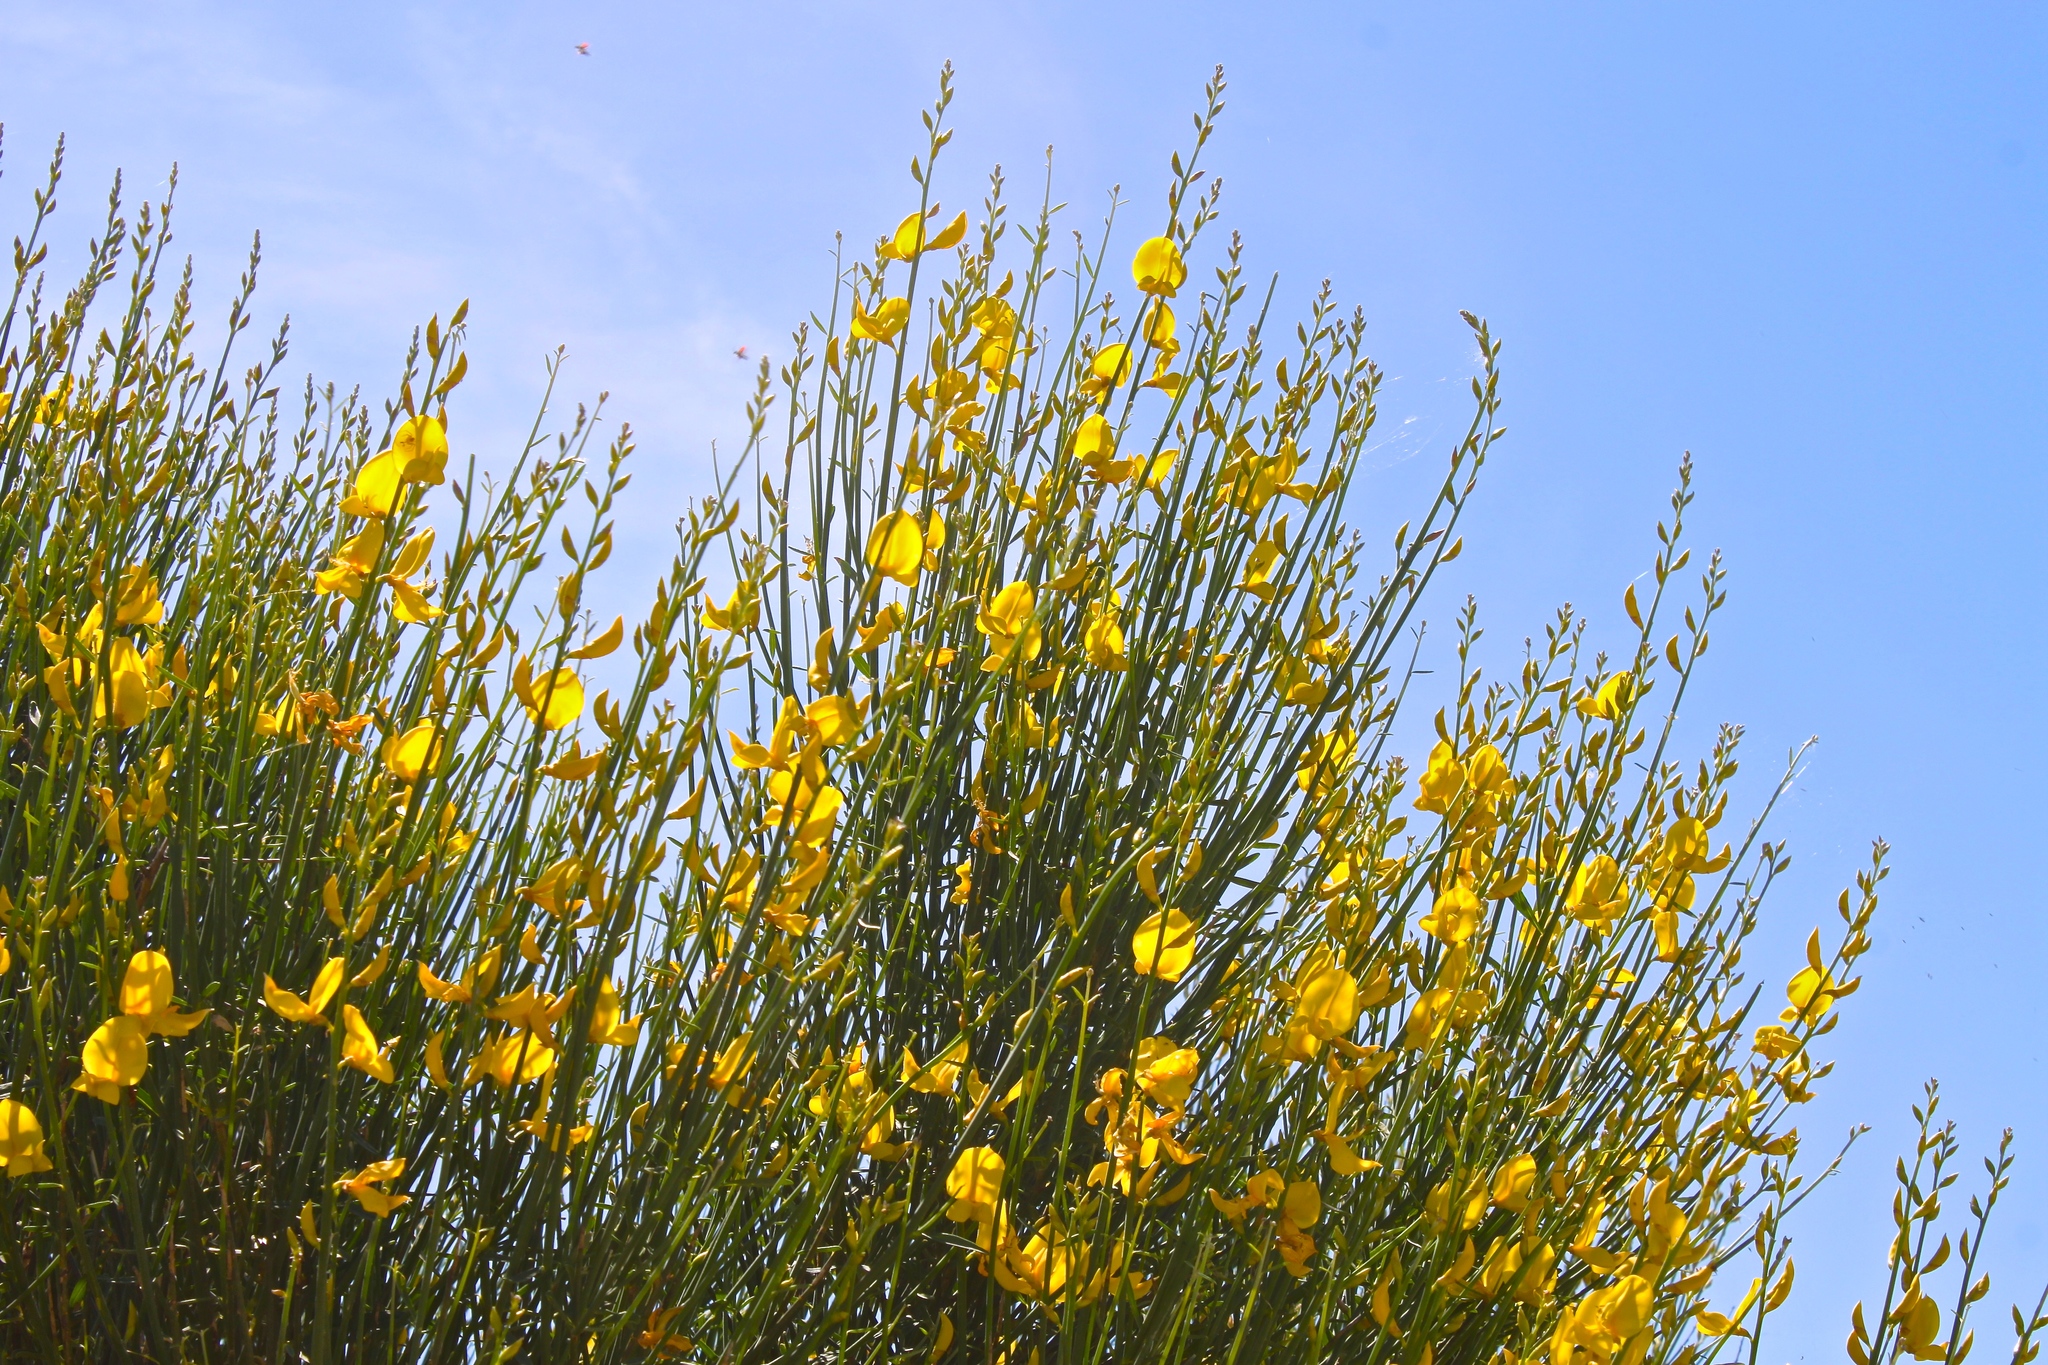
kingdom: Plantae
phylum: Tracheophyta
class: Magnoliopsida
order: Fabales
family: Fabaceae
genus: Spartium
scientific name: Spartium junceum
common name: Spanish broom
